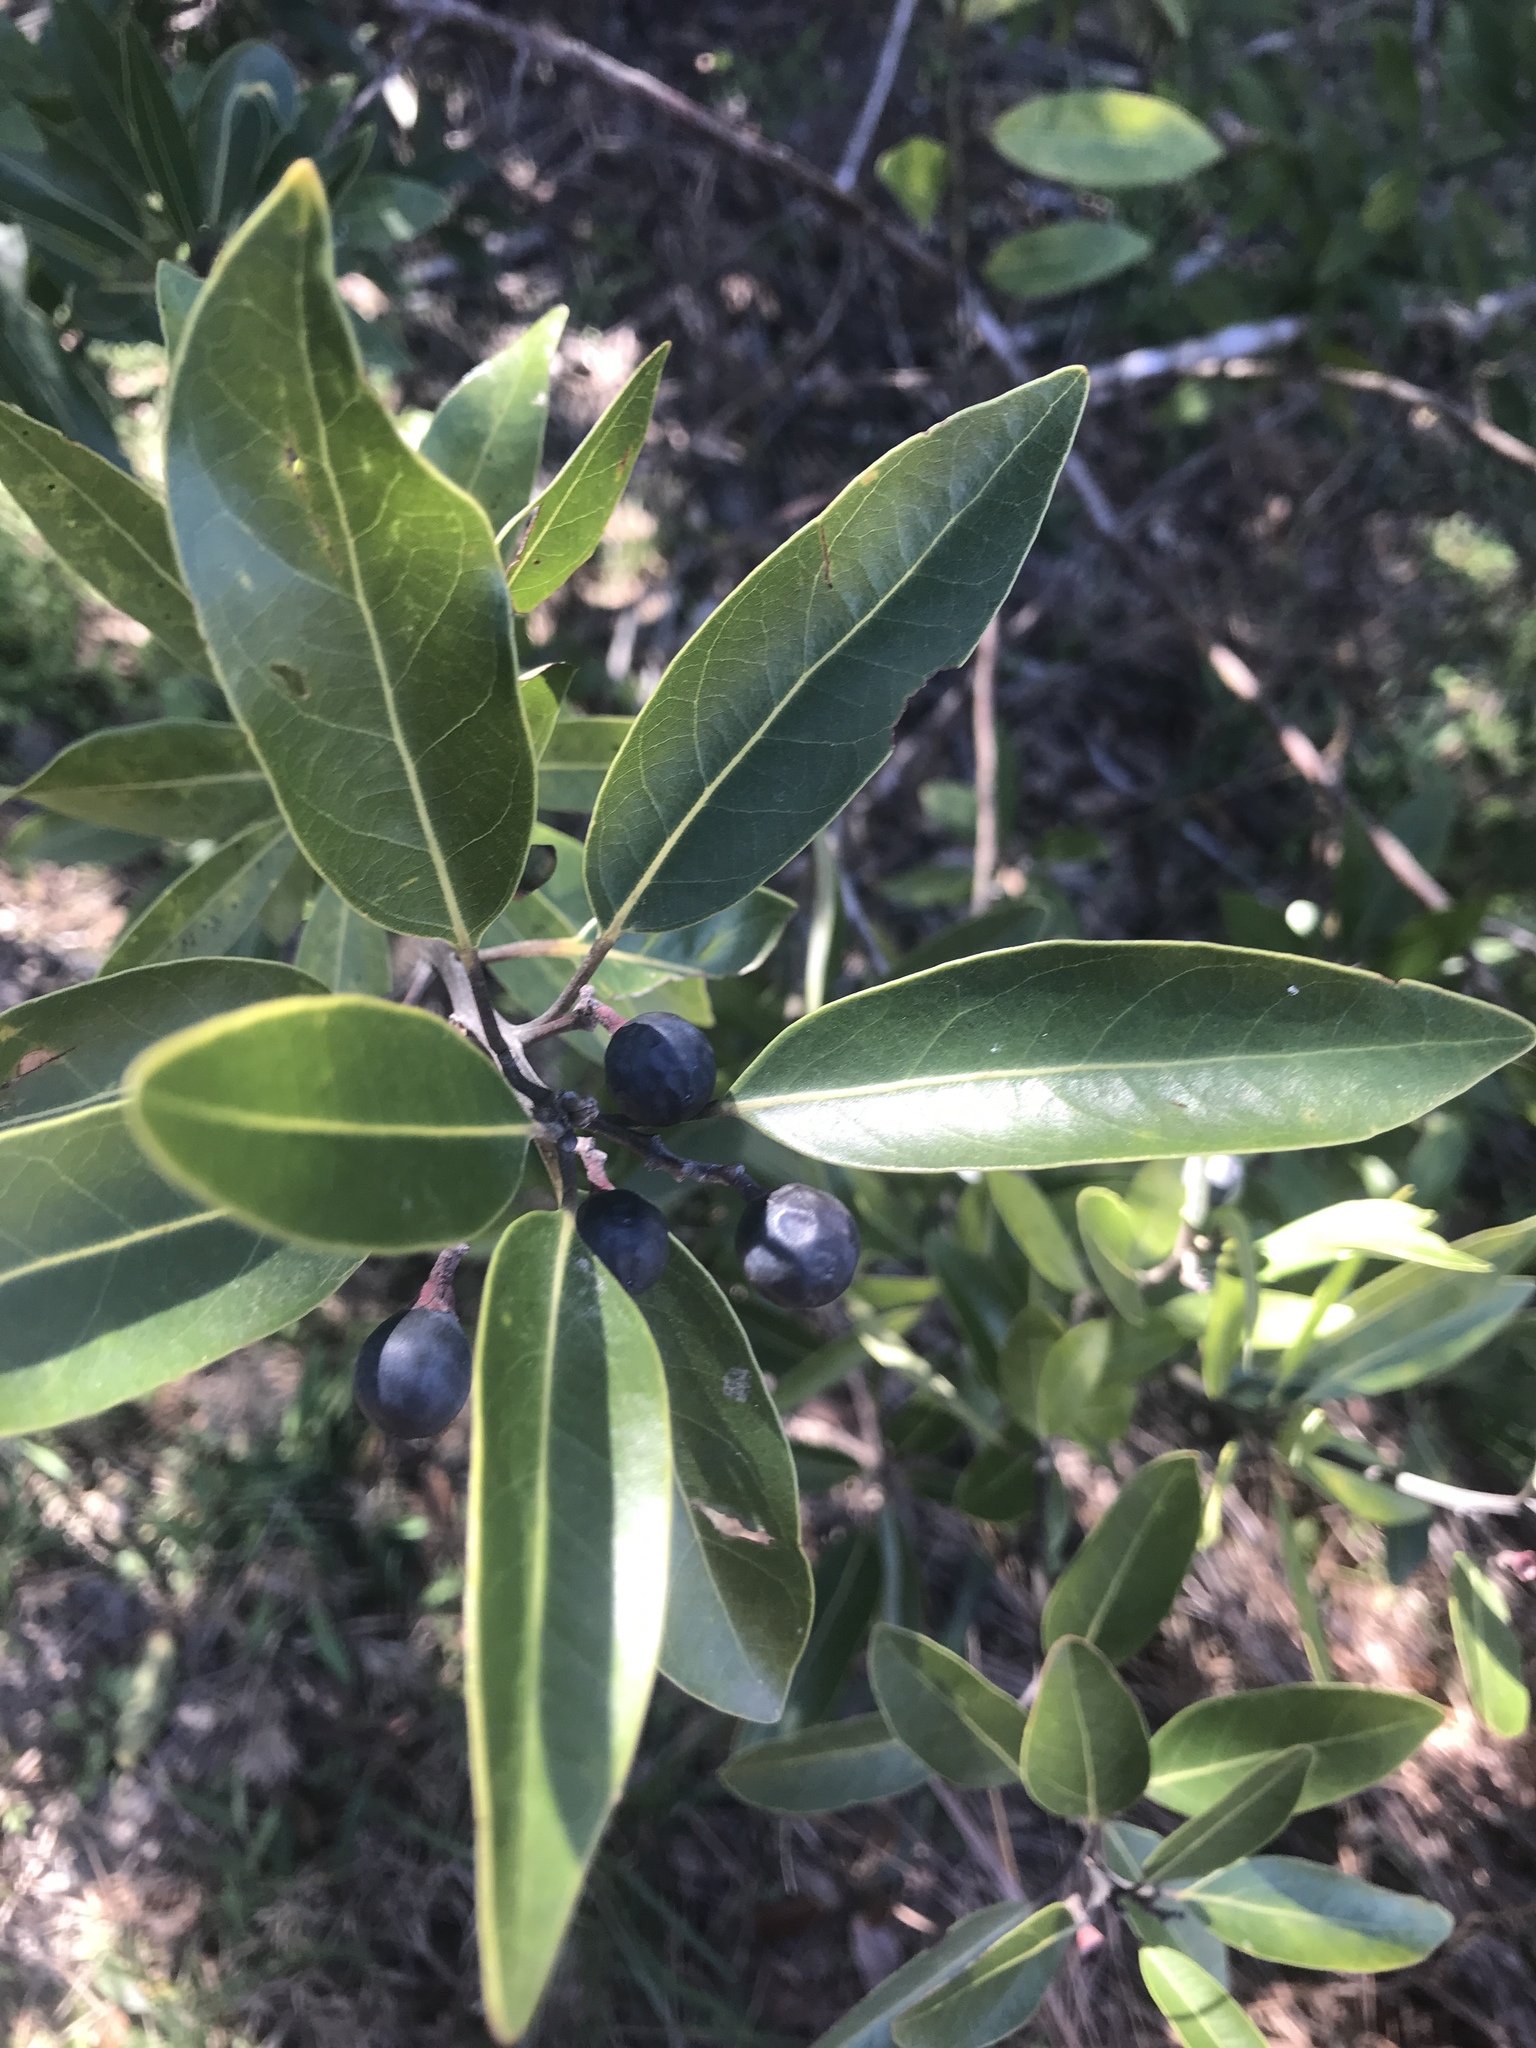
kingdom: Plantae
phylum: Tracheophyta
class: Magnoliopsida
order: Laurales
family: Lauraceae
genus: Persea
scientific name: Persea borbonia
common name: Redbay
